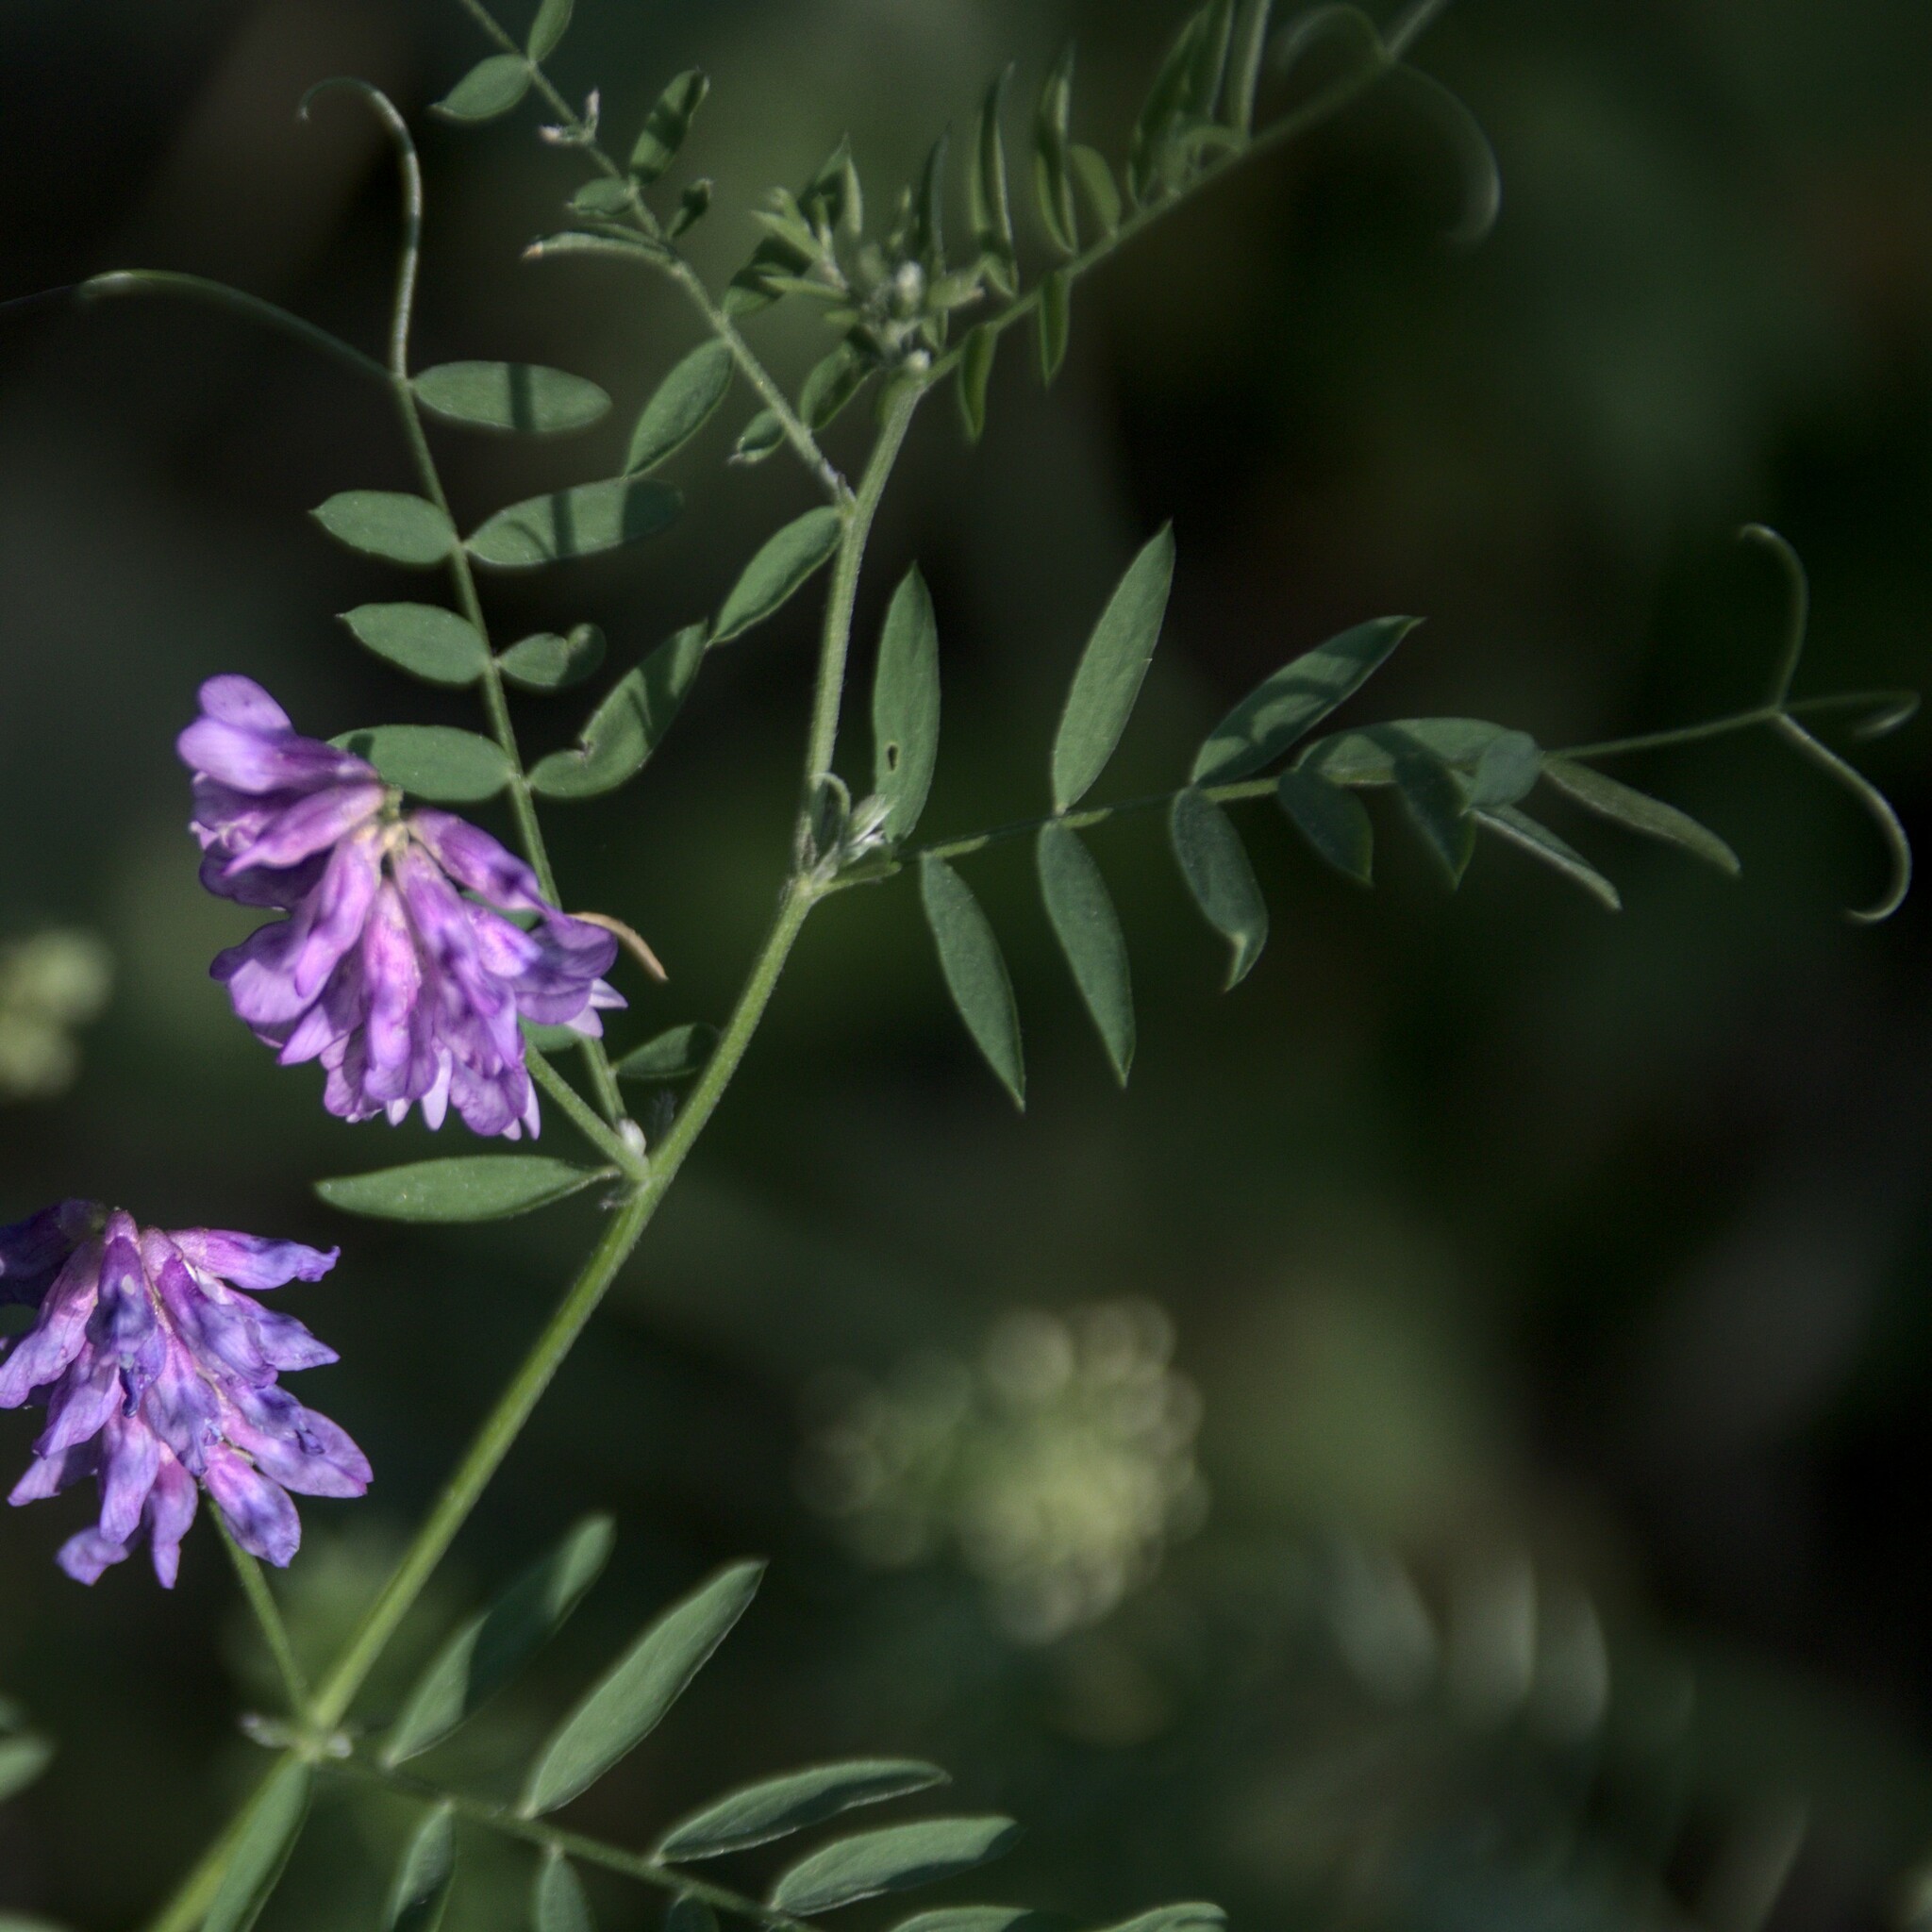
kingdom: Plantae
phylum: Tracheophyta
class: Magnoliopsida
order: Fabales
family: Fabaceae
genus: Vicia
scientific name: Vicia cracca
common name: Bird vetch
